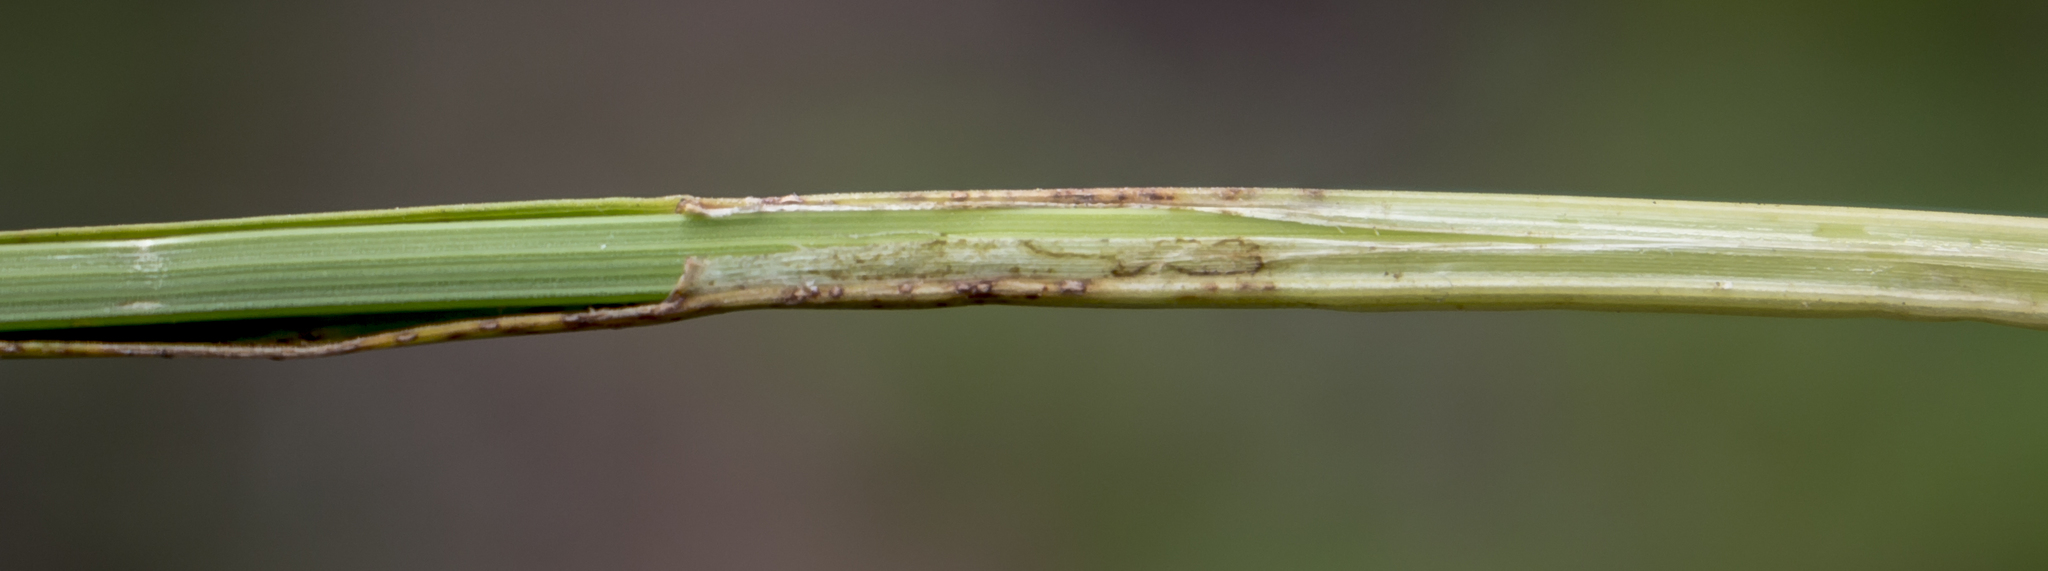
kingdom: Plantae
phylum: Tracheophyta
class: Liliopsida
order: Poales
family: Cyperaceae
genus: Carex
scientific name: Carex spicata
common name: Spiked sedge
